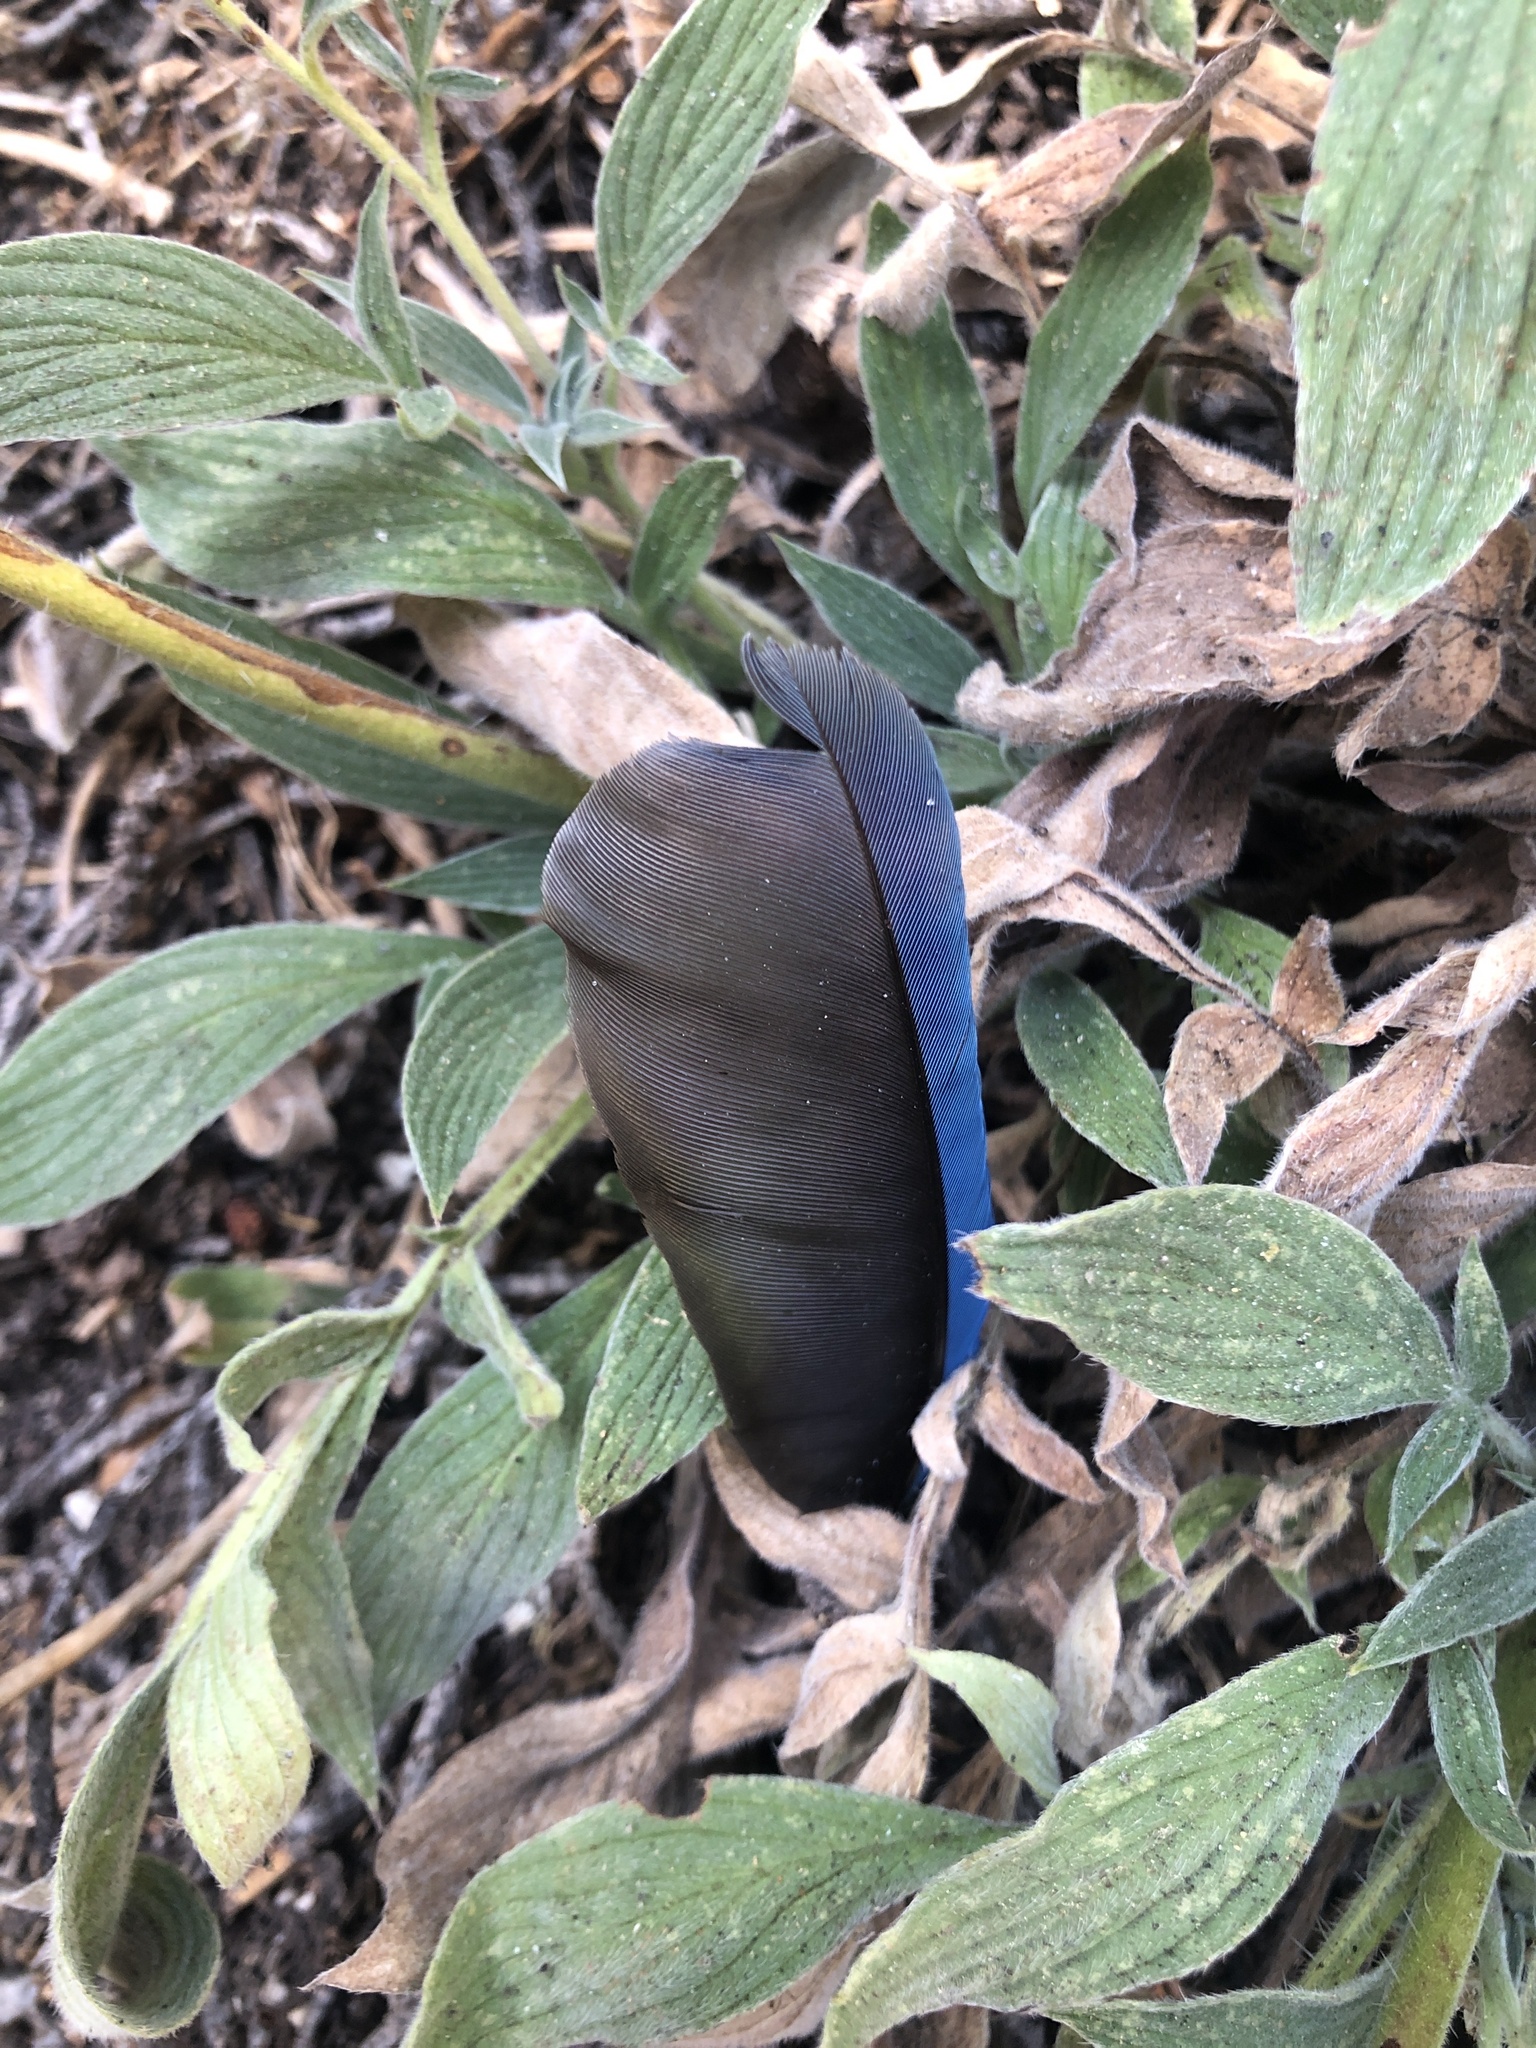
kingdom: Animalia
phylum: Chordata
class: Aves
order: Passeriformes
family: Corvidae
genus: Cyanocitta
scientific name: Cyanocitta stelleri
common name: Steller's jay
